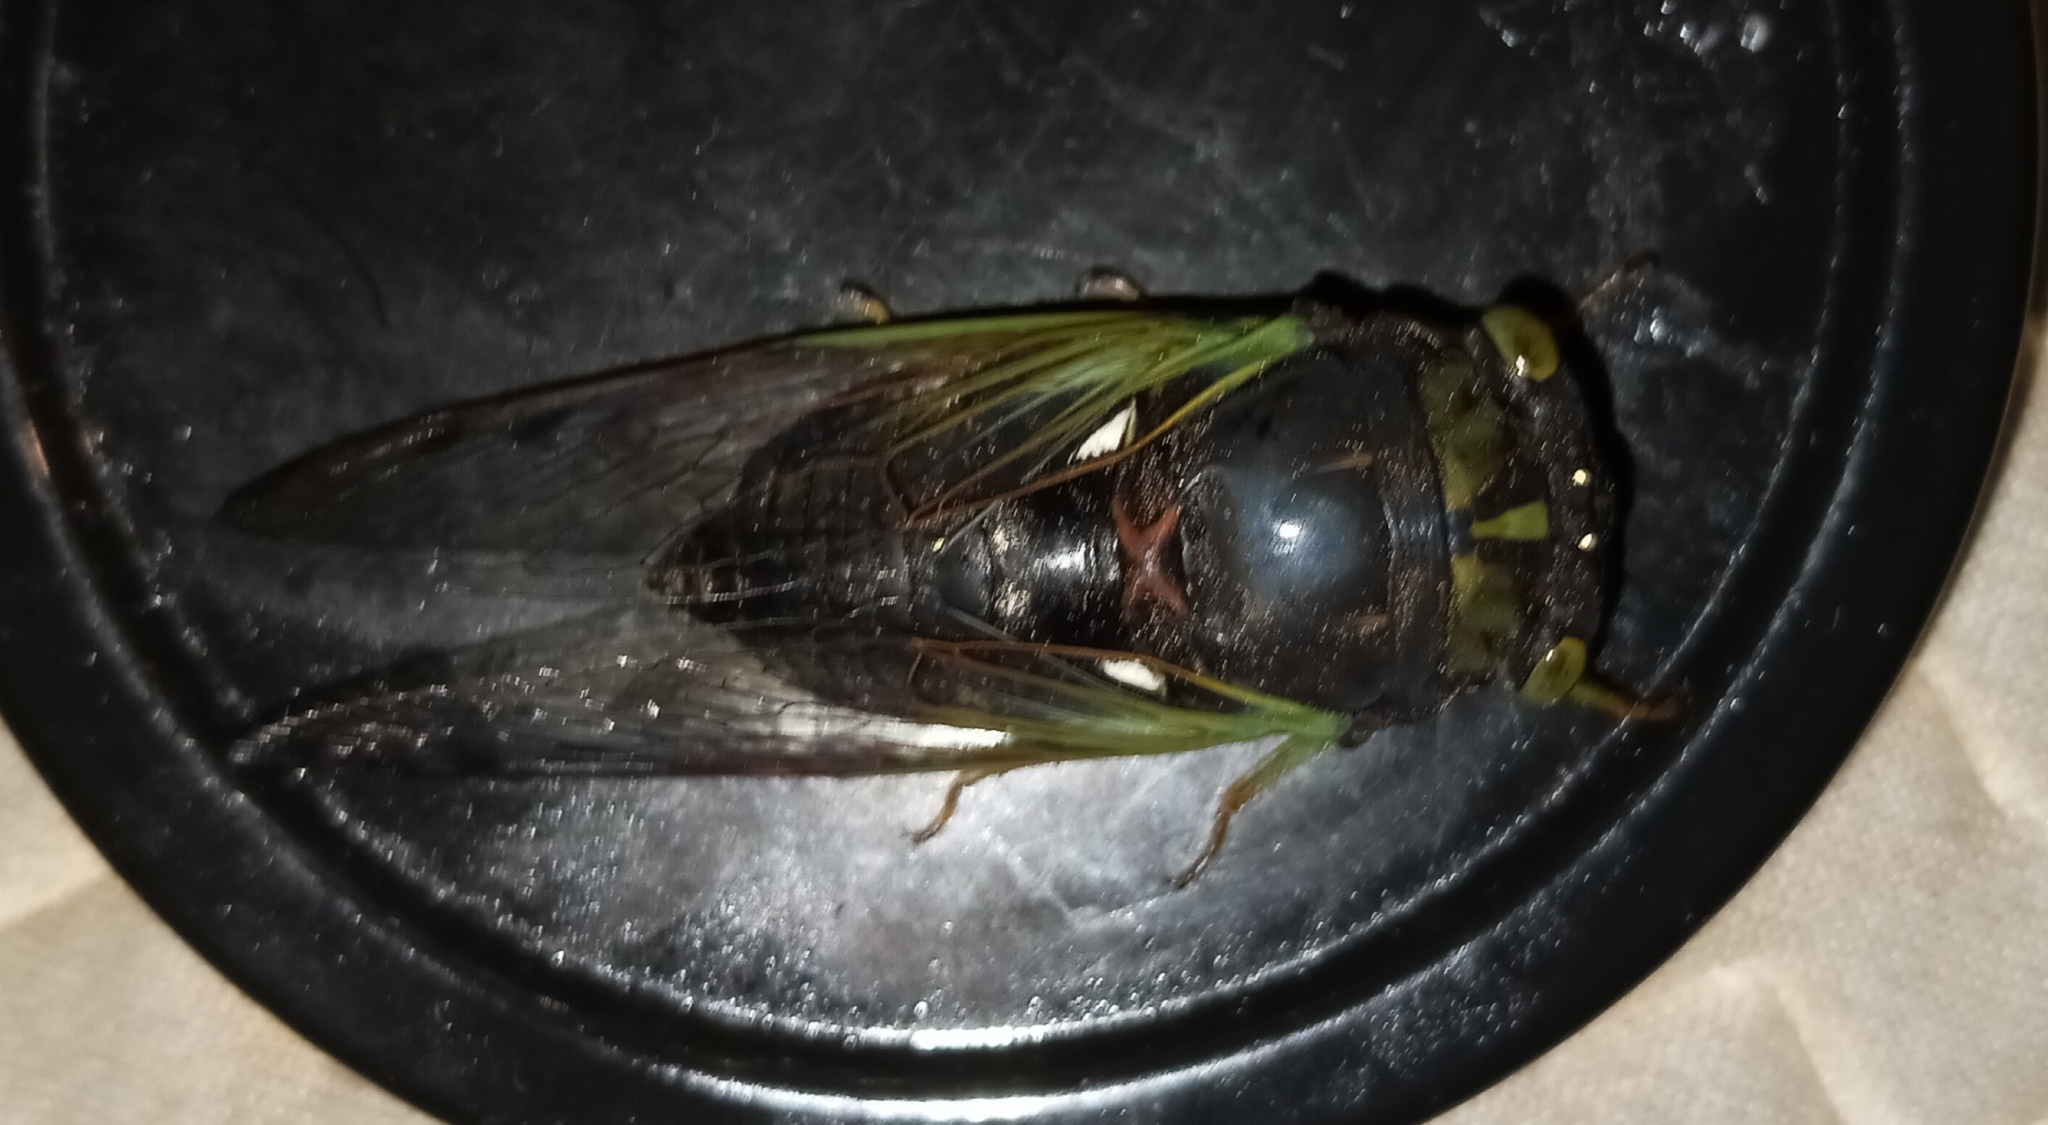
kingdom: Animalia
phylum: Arthropoda
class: Insecta
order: Hemiptera
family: Cicadidae
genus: Neotibicen
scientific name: Neotibicen tibicen
